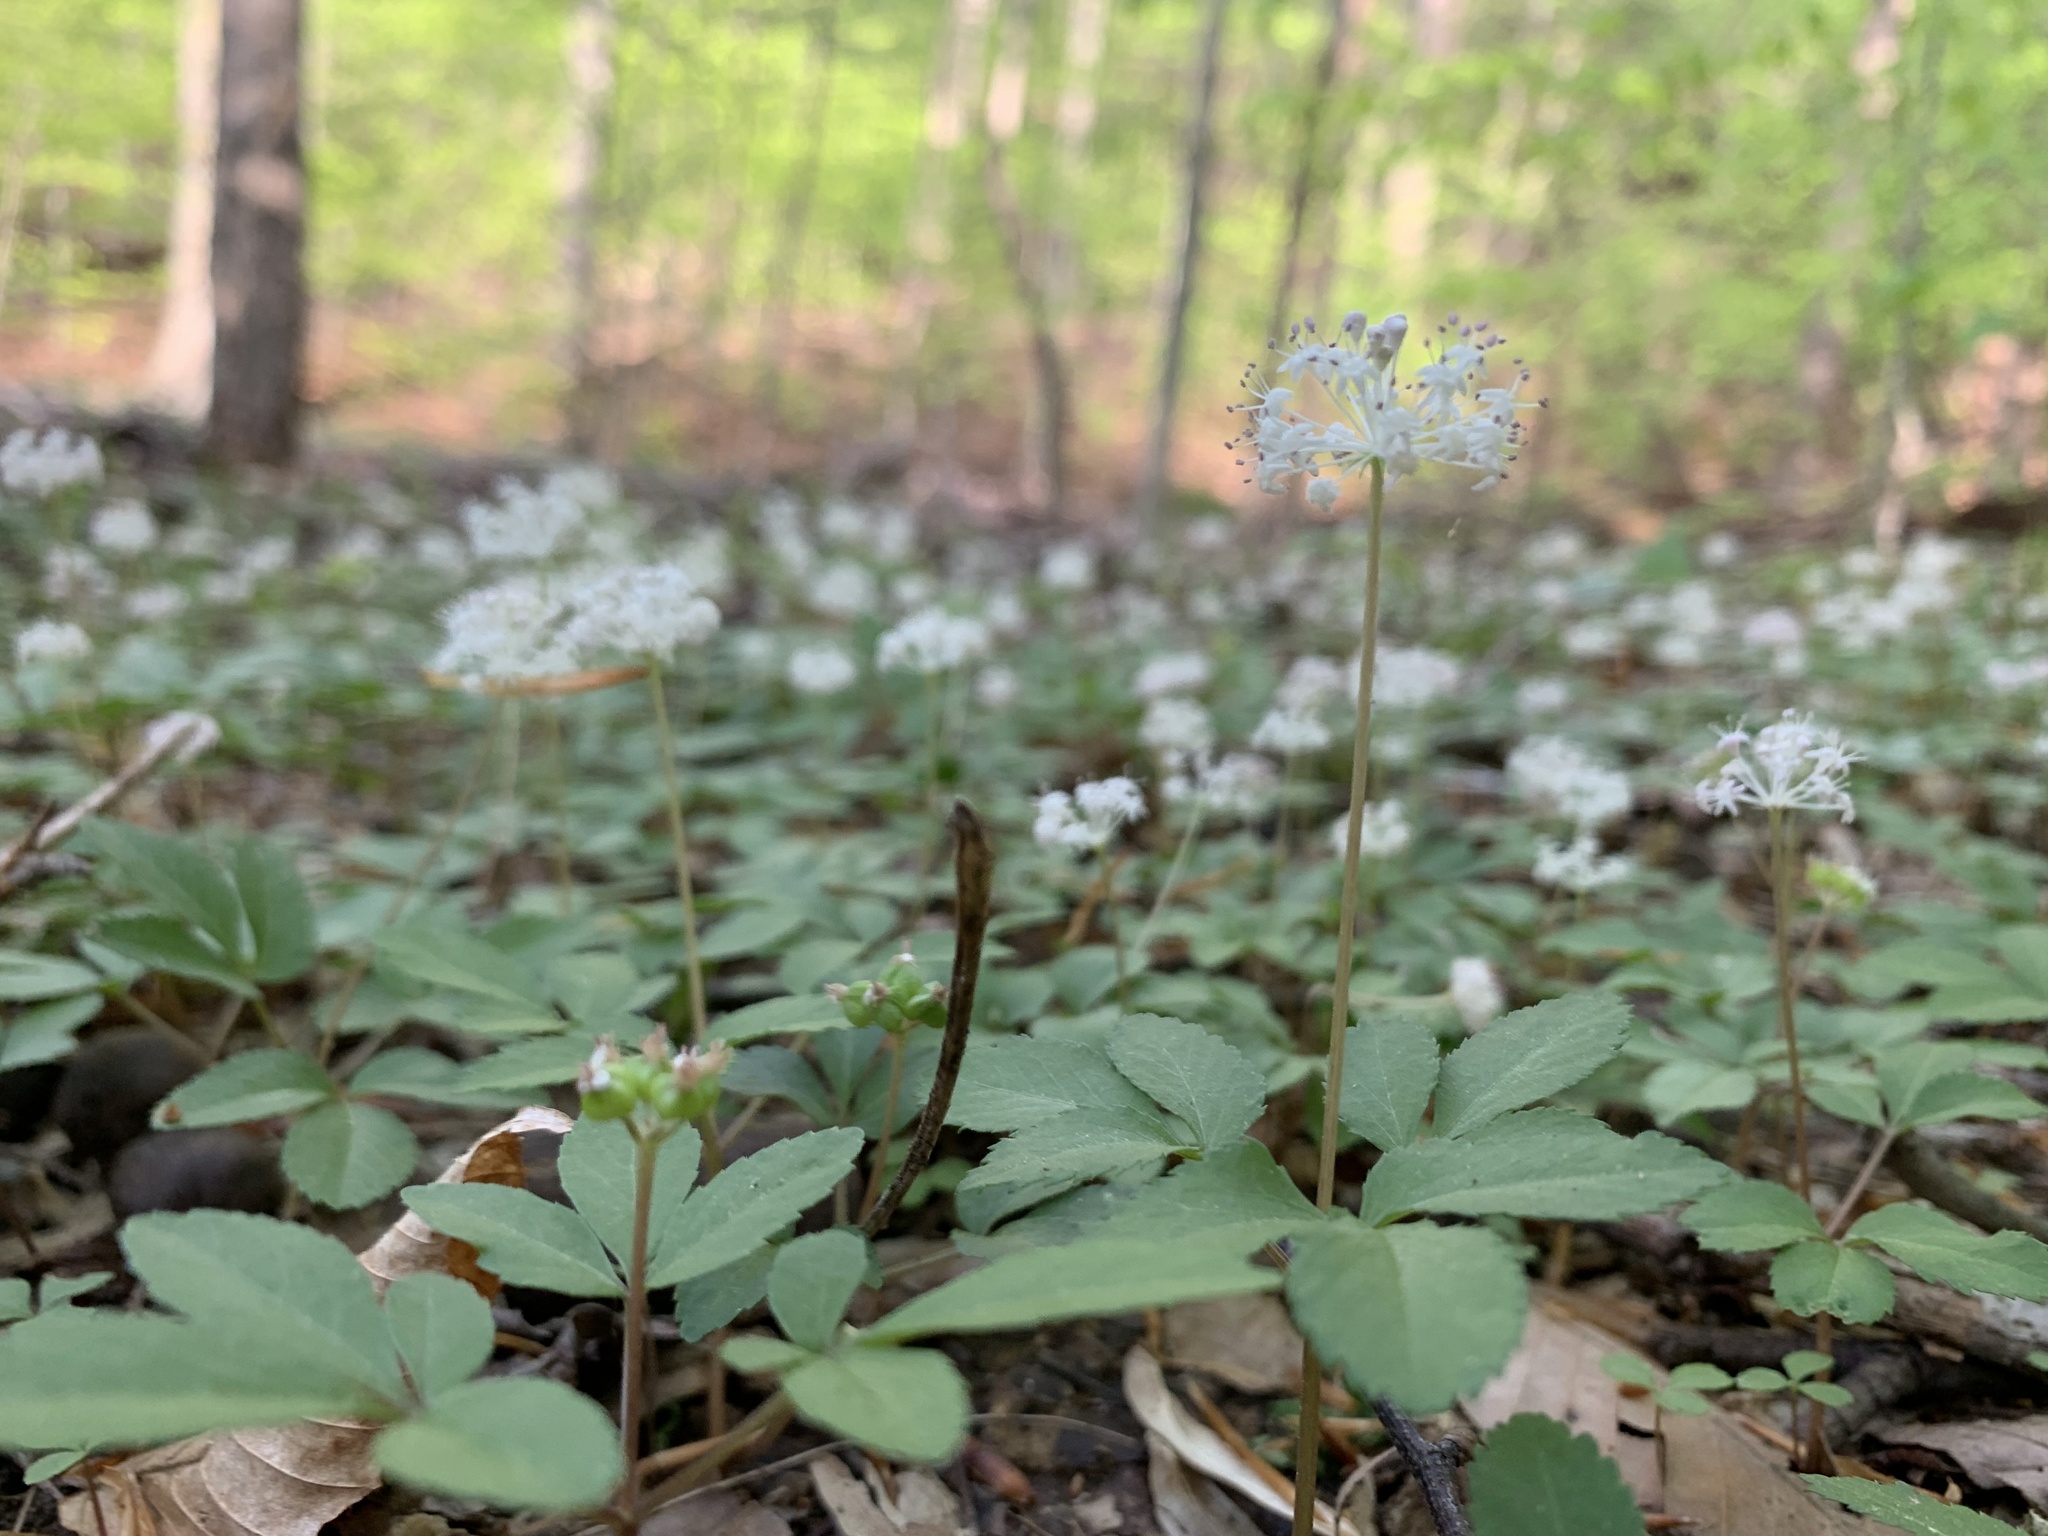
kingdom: Plantae
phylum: Tracheophyta
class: Magnoliopsida
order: Apiales
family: Araliaceae
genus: Panax
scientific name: Panax trifolius
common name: Dwarf ginseng
